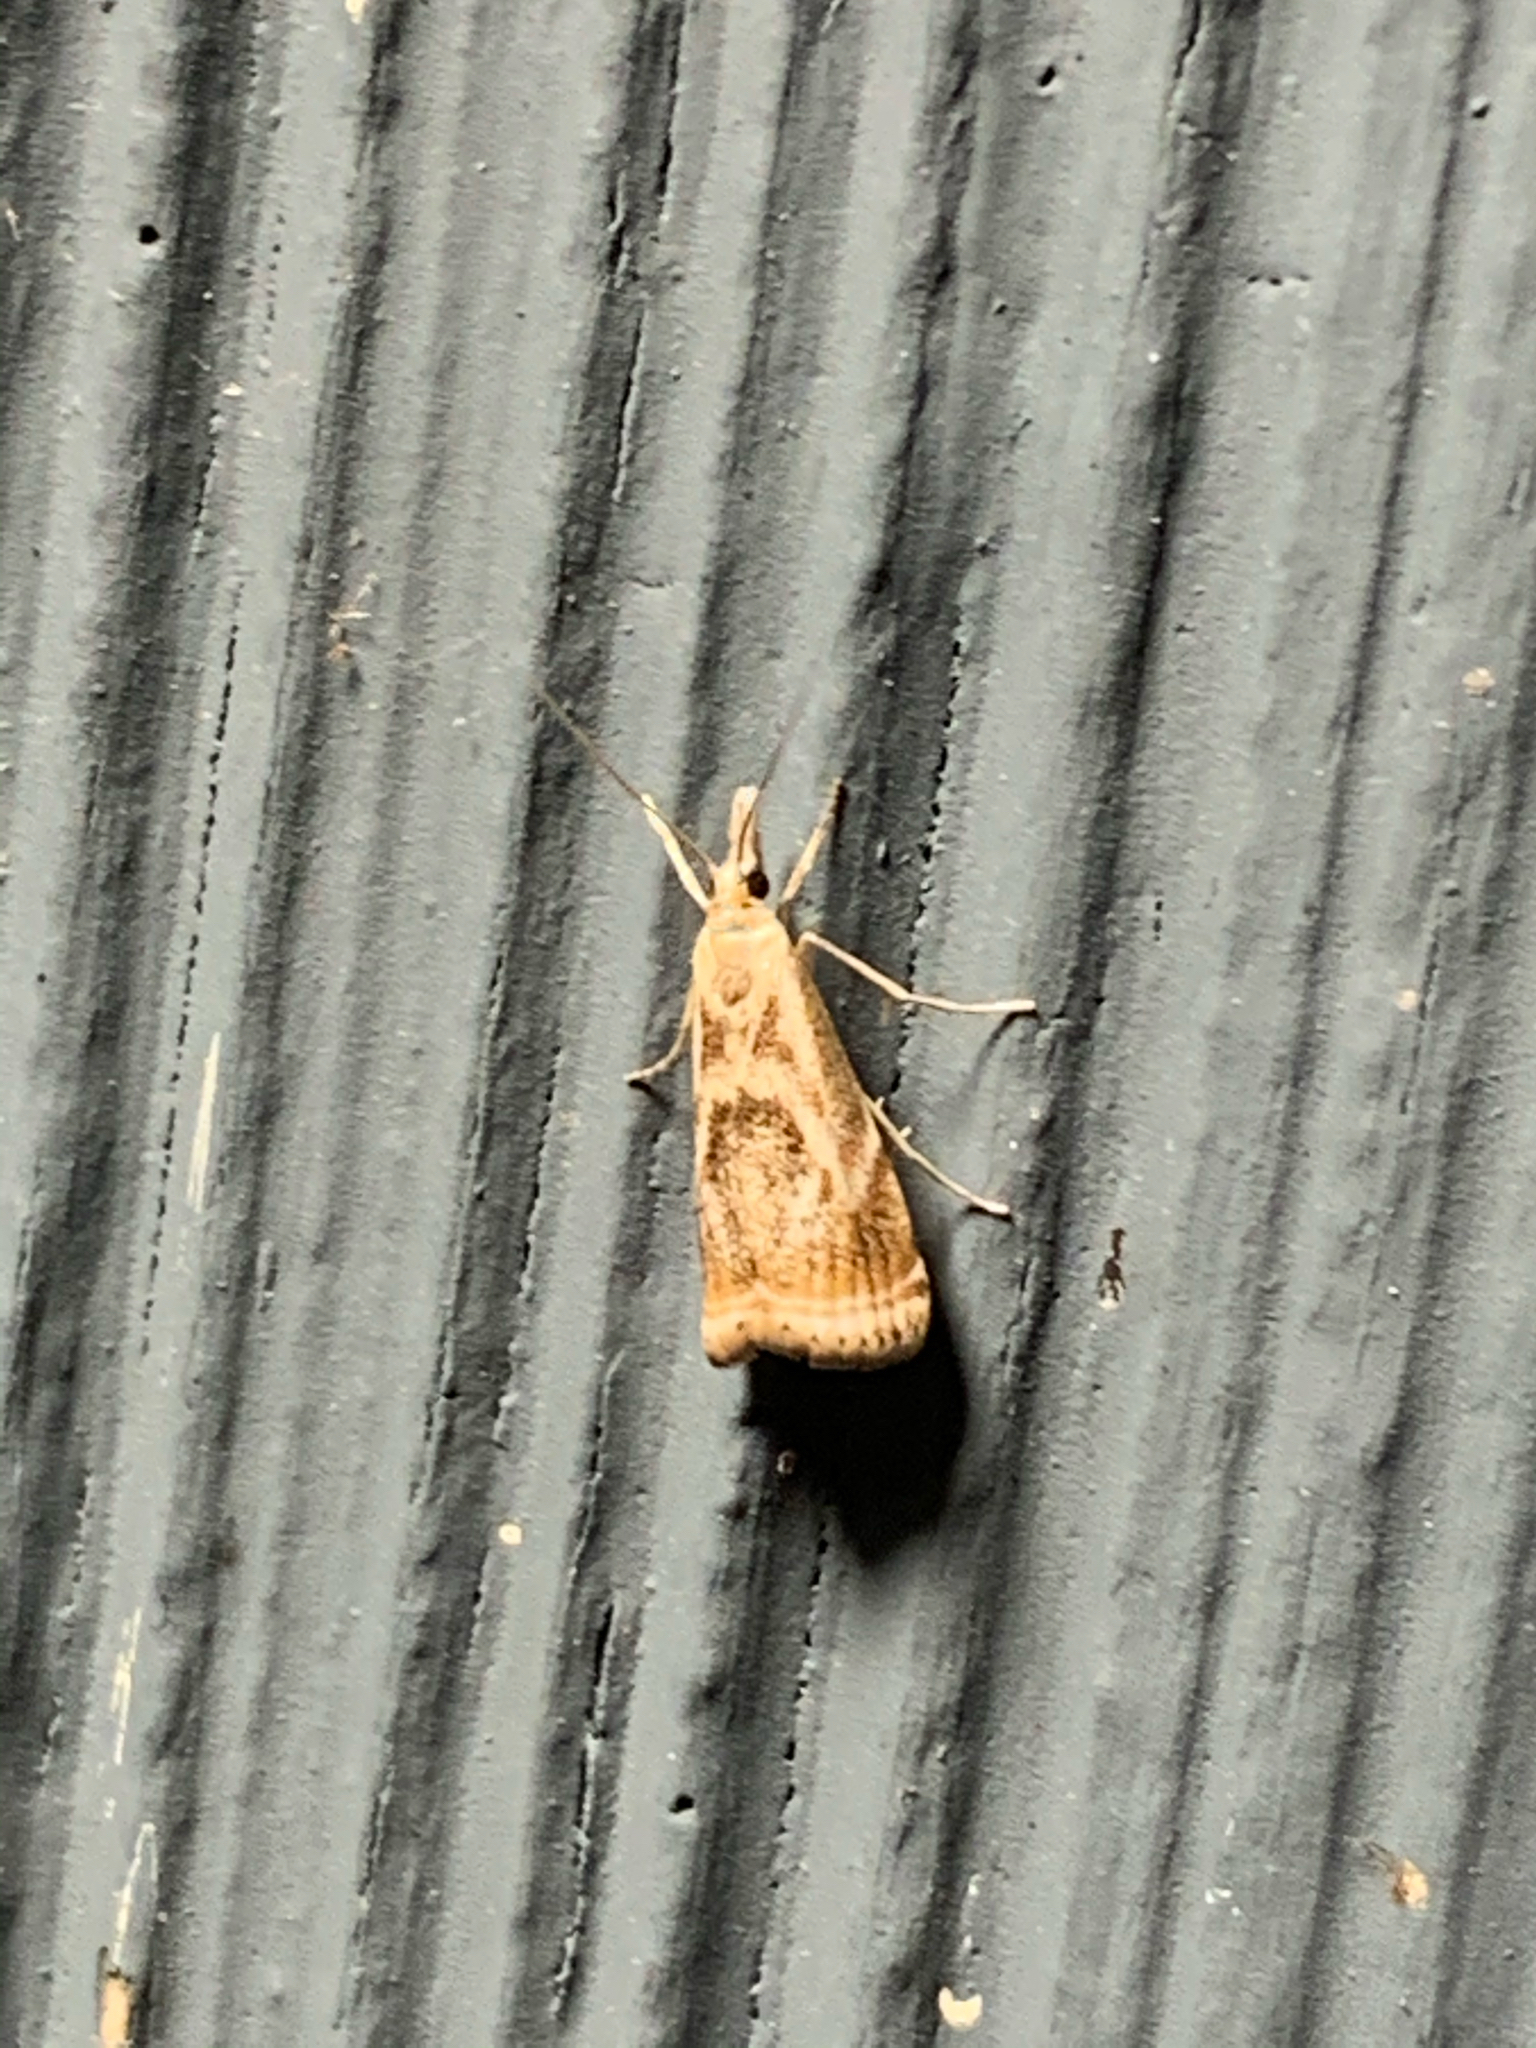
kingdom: Animalia
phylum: Arthropoda
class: Insecta
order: Lepidoptera
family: Crambidae
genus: Microcrambus
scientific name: Microcrambus elegans
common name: Elegant grass-veneer
